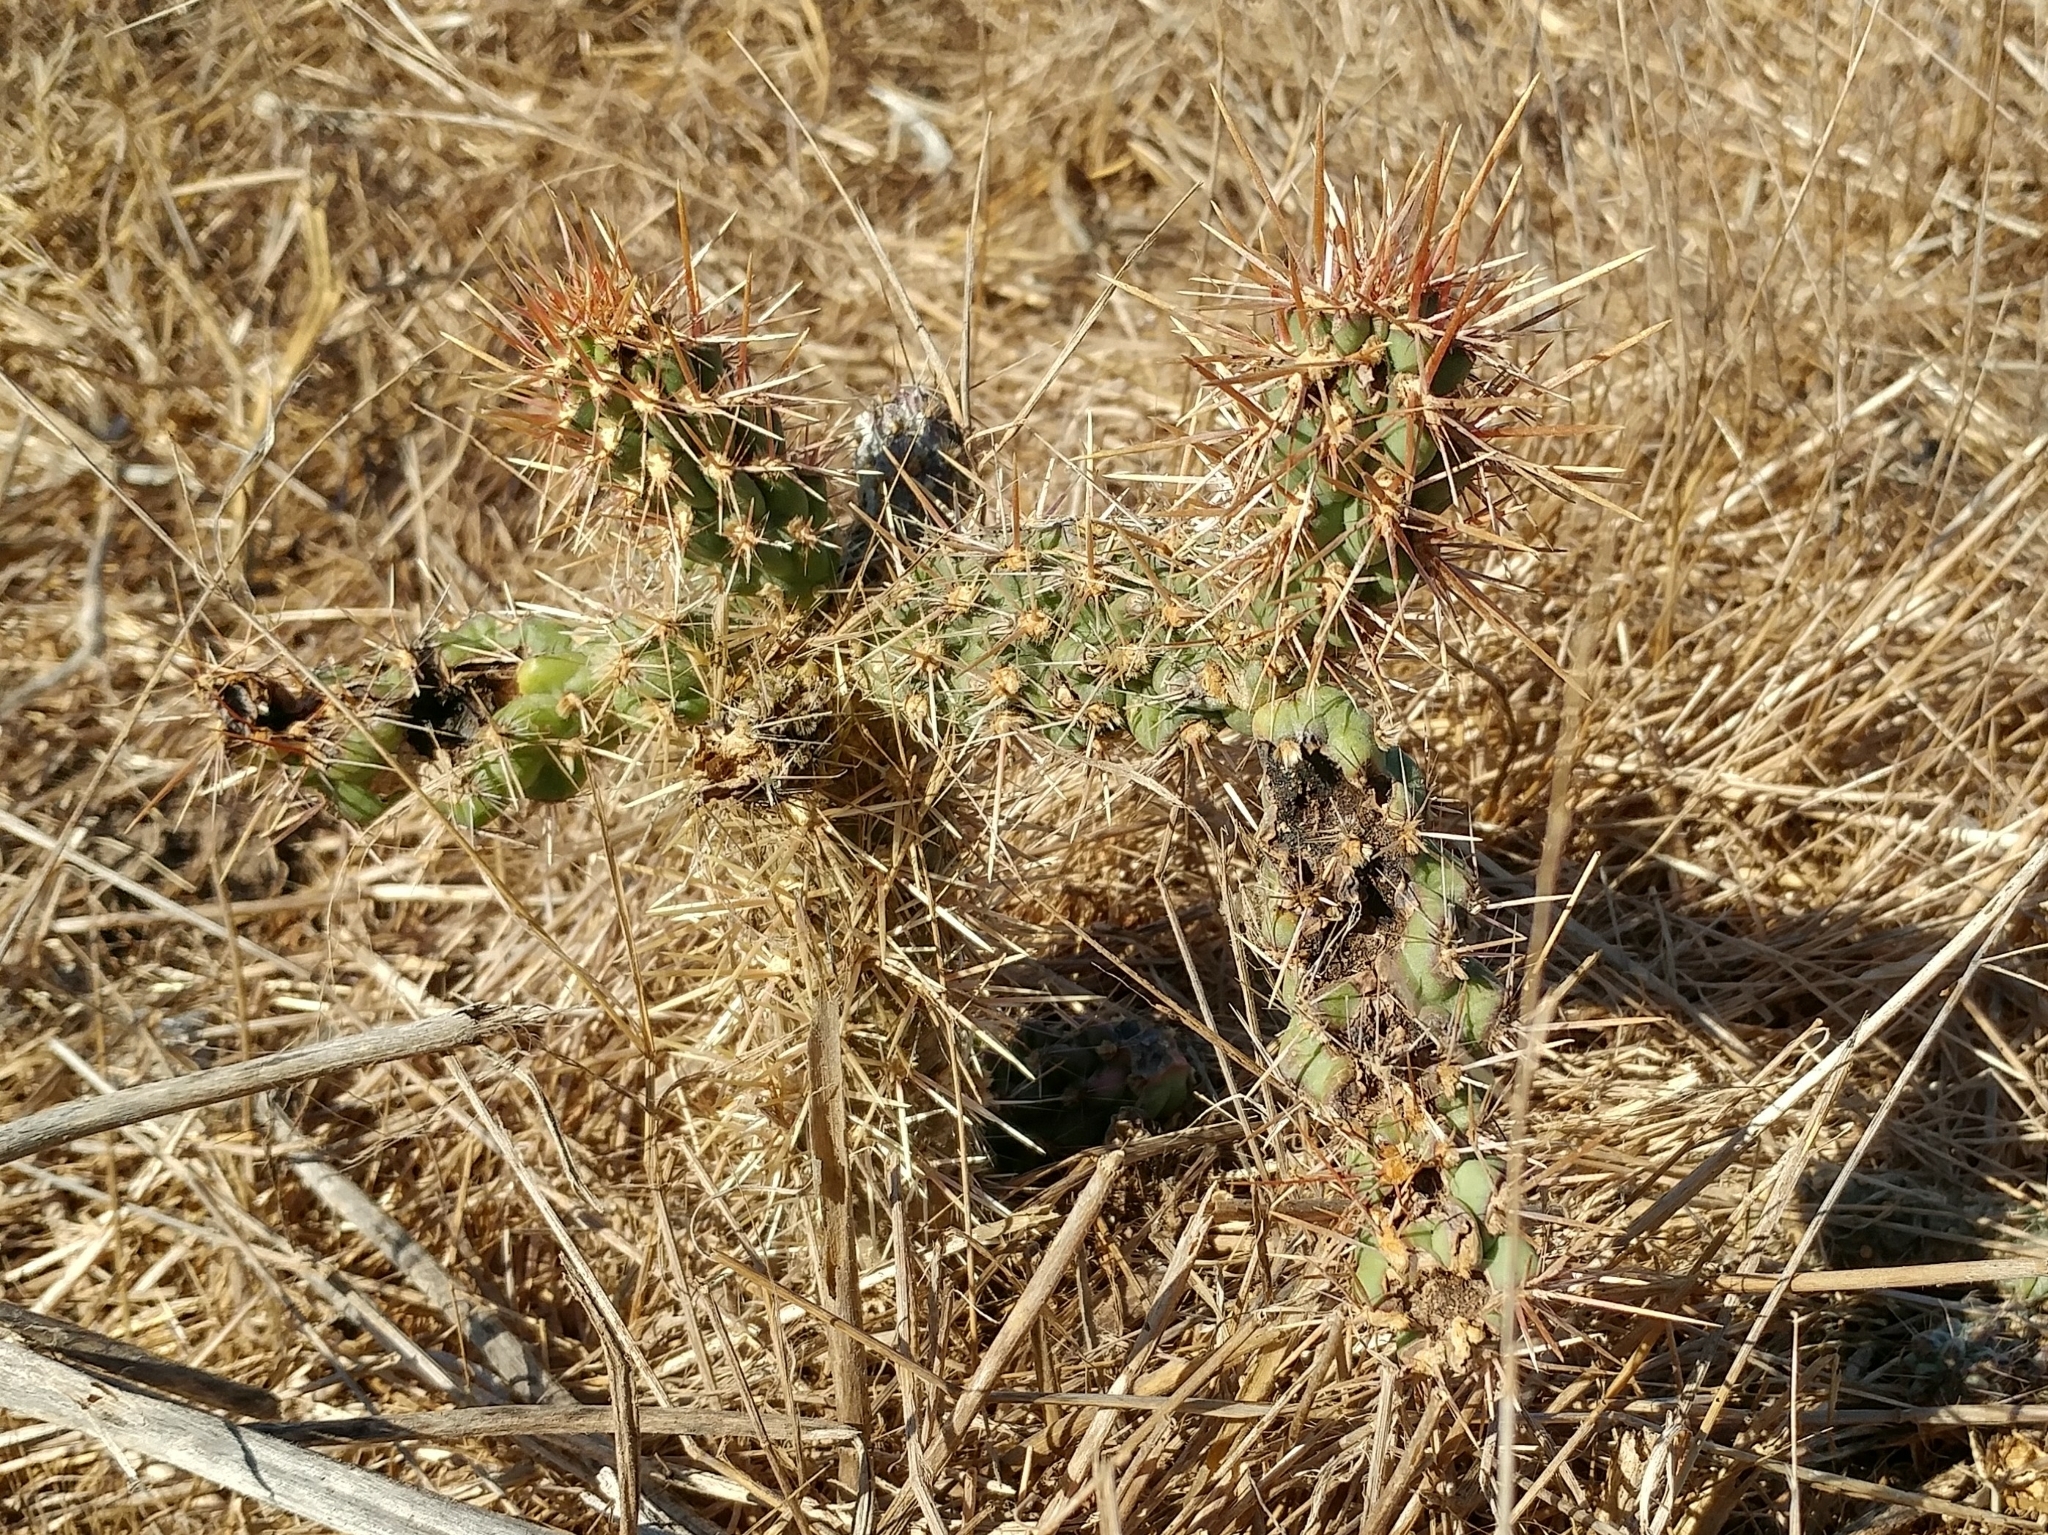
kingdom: Plantae
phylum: Tracheophyta
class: Magnoliopsida
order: Caryophyllales
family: Cactaceae
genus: Cylindropuntia
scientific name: Cylindropuntia prolifera
